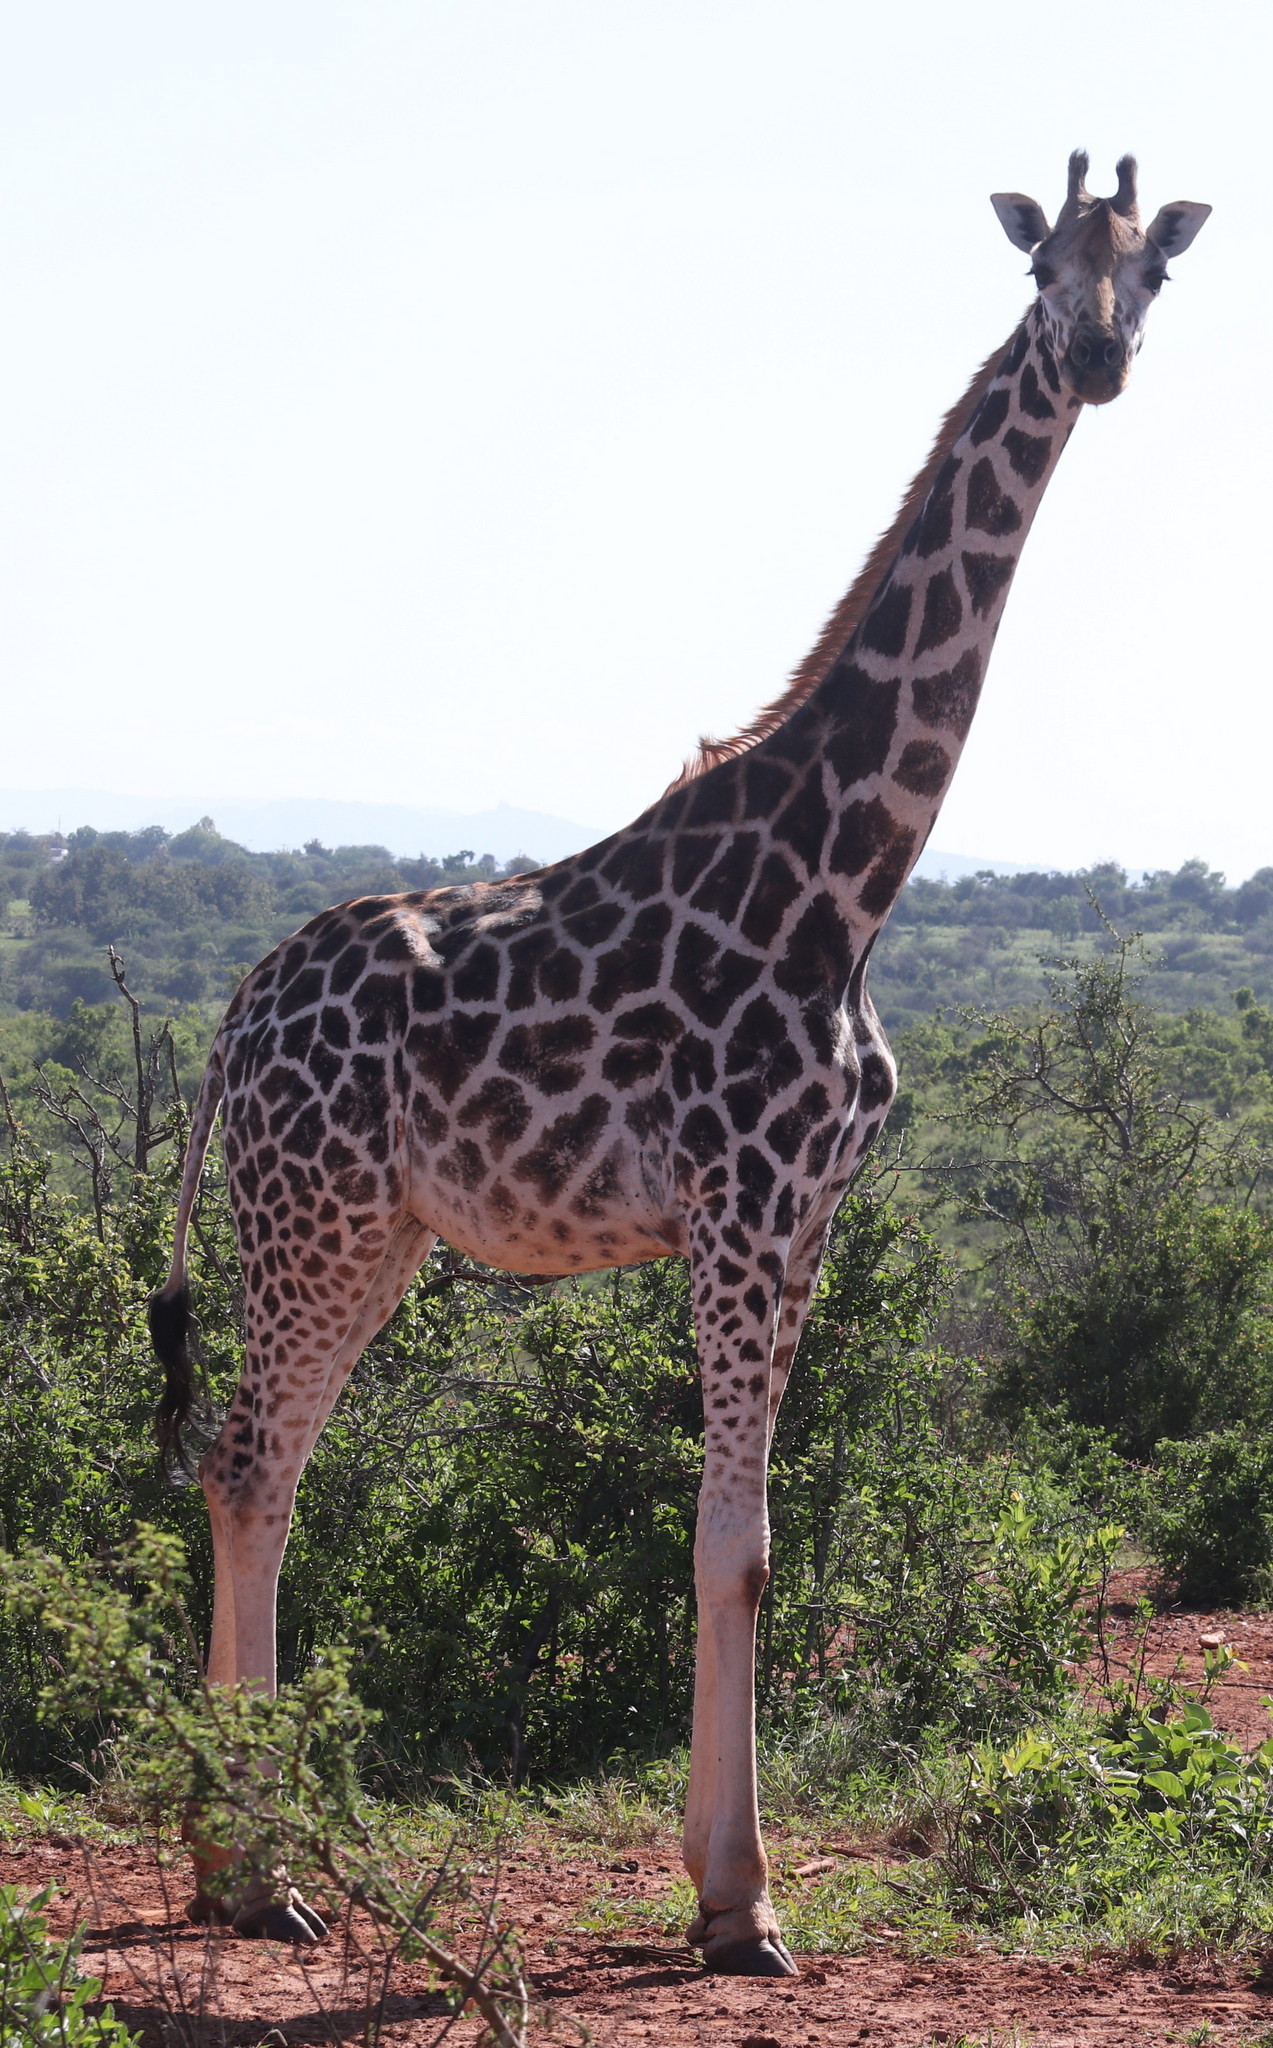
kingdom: Animalia
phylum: Chordata
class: Mammalia
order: Artiodactyla
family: Giraffidae
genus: Giraffa
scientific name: Giraffa camelopardalis
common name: Giraffe
